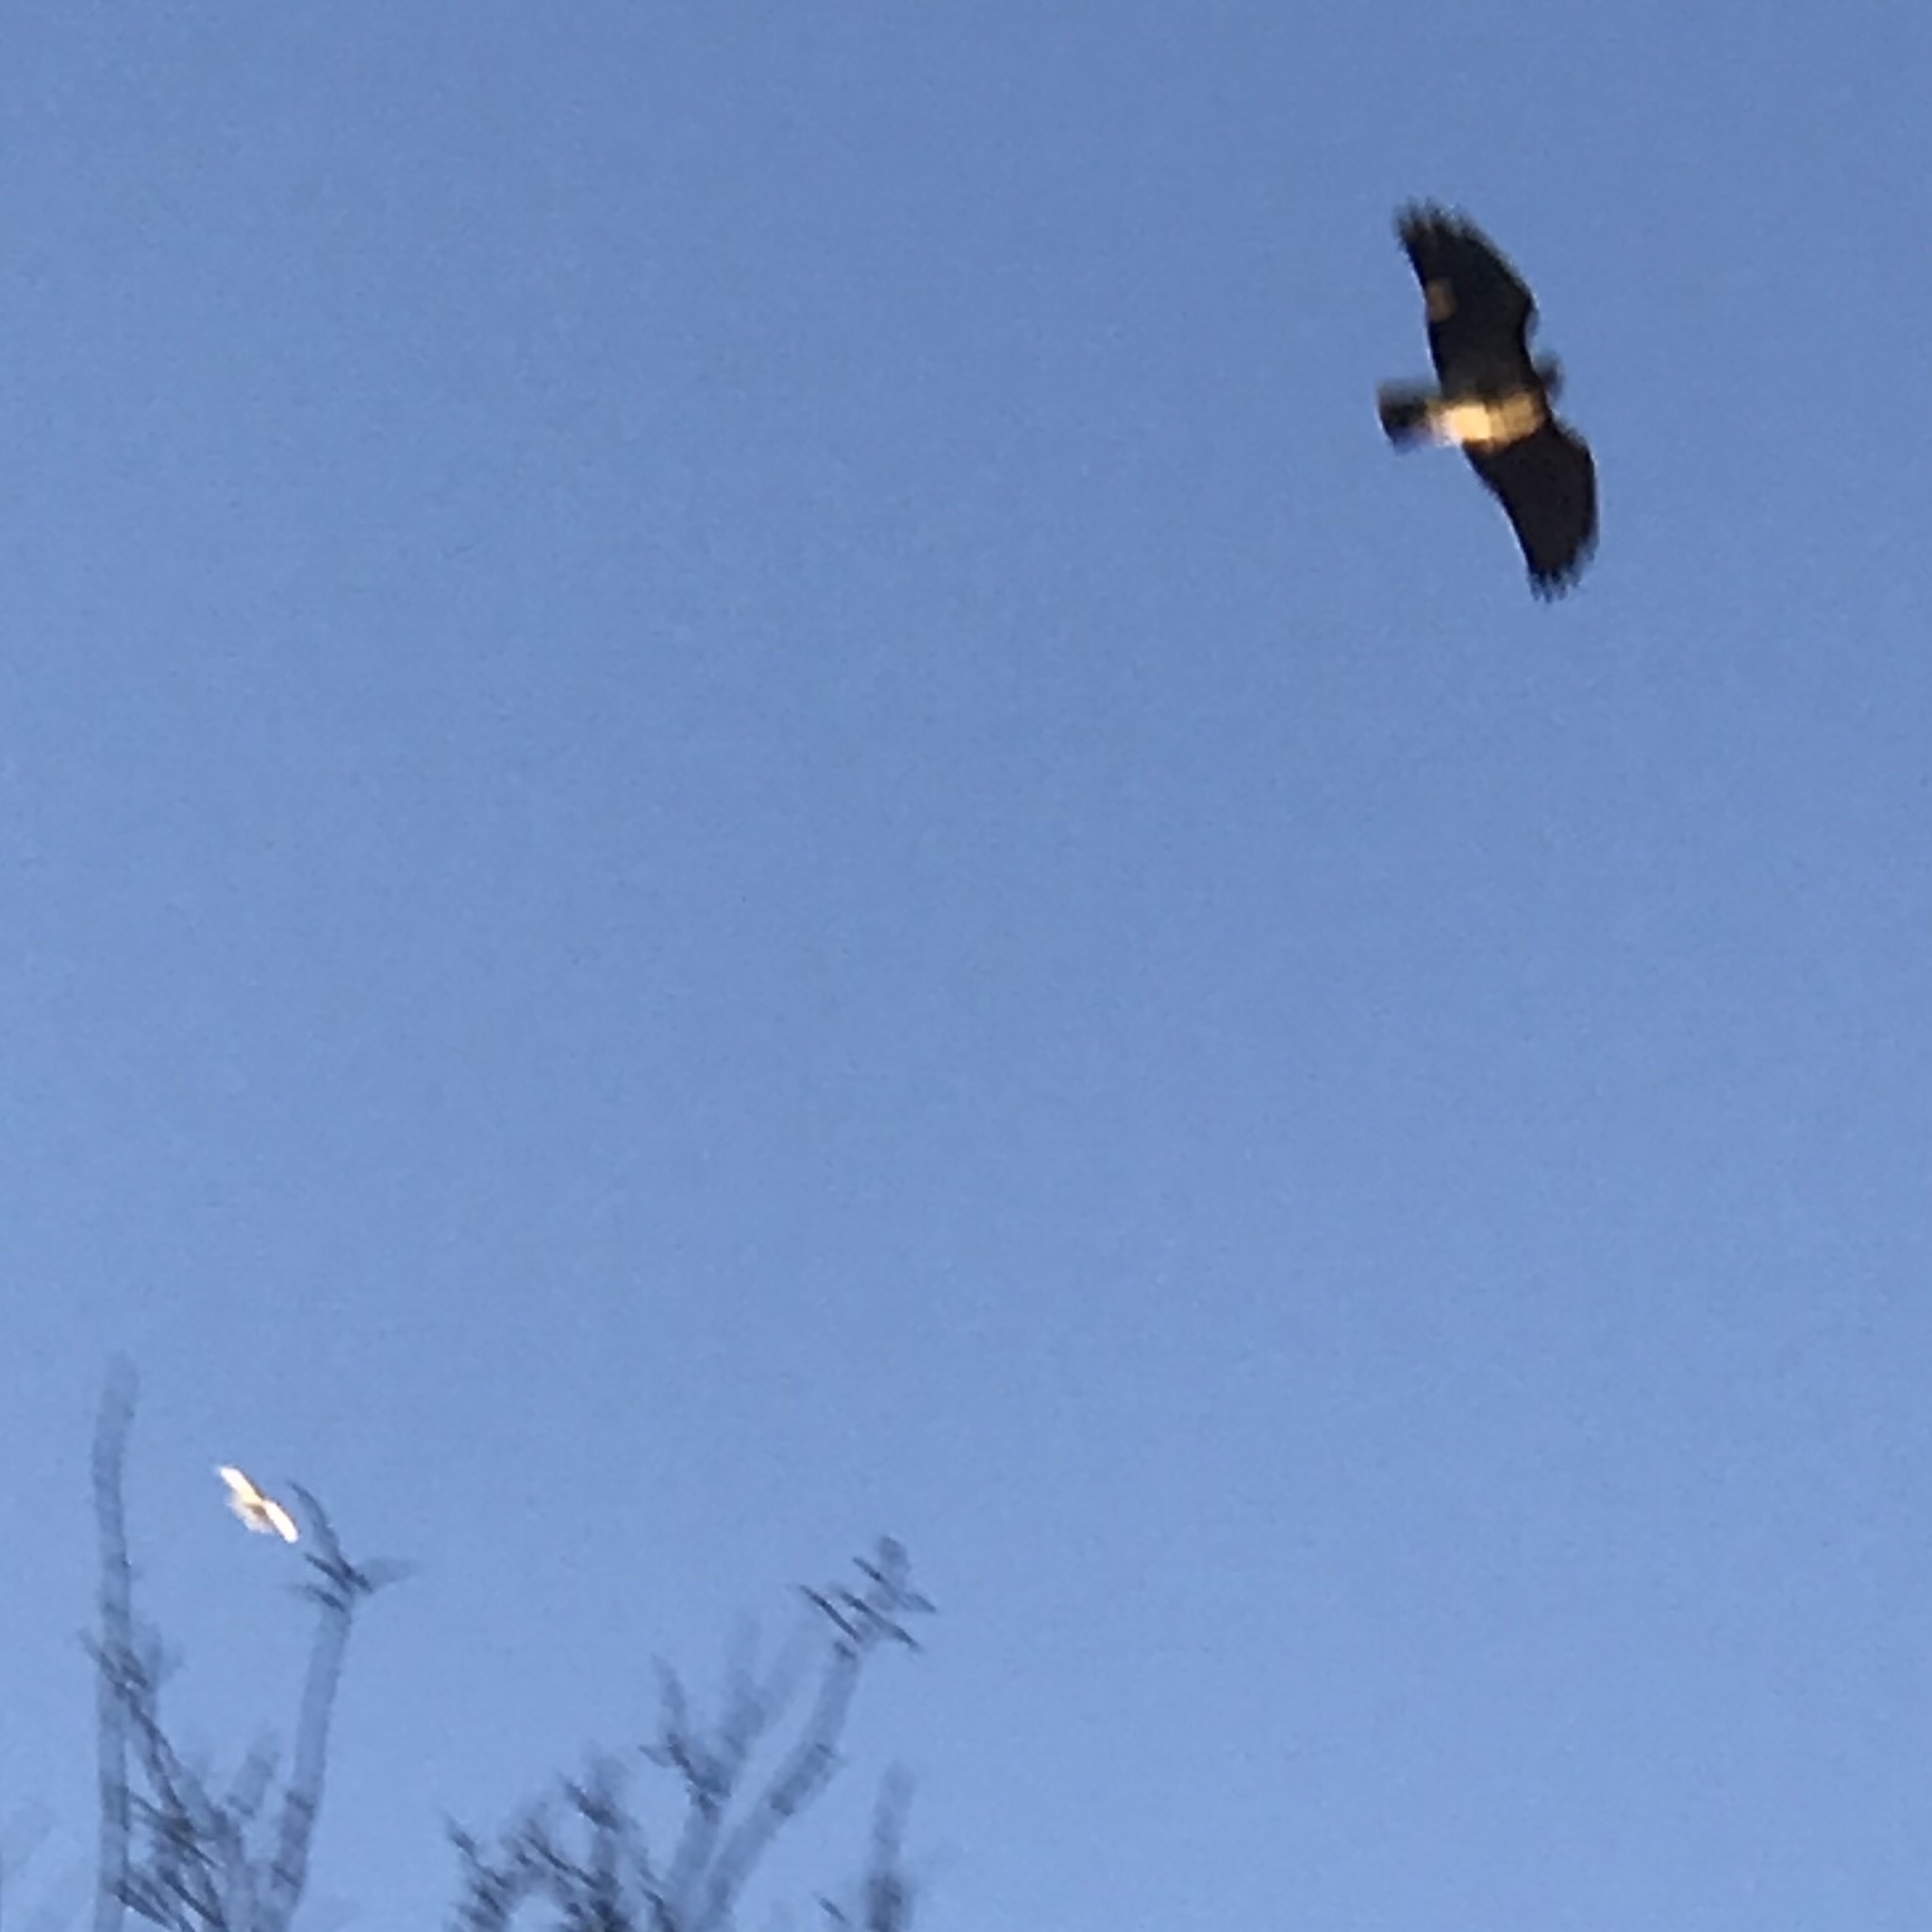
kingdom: Animalia
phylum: Chordata
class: Aves
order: Accipitriformes
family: Accipitridae
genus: Buteo
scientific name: Buteo jamaicensis
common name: Red-tailed hawk
